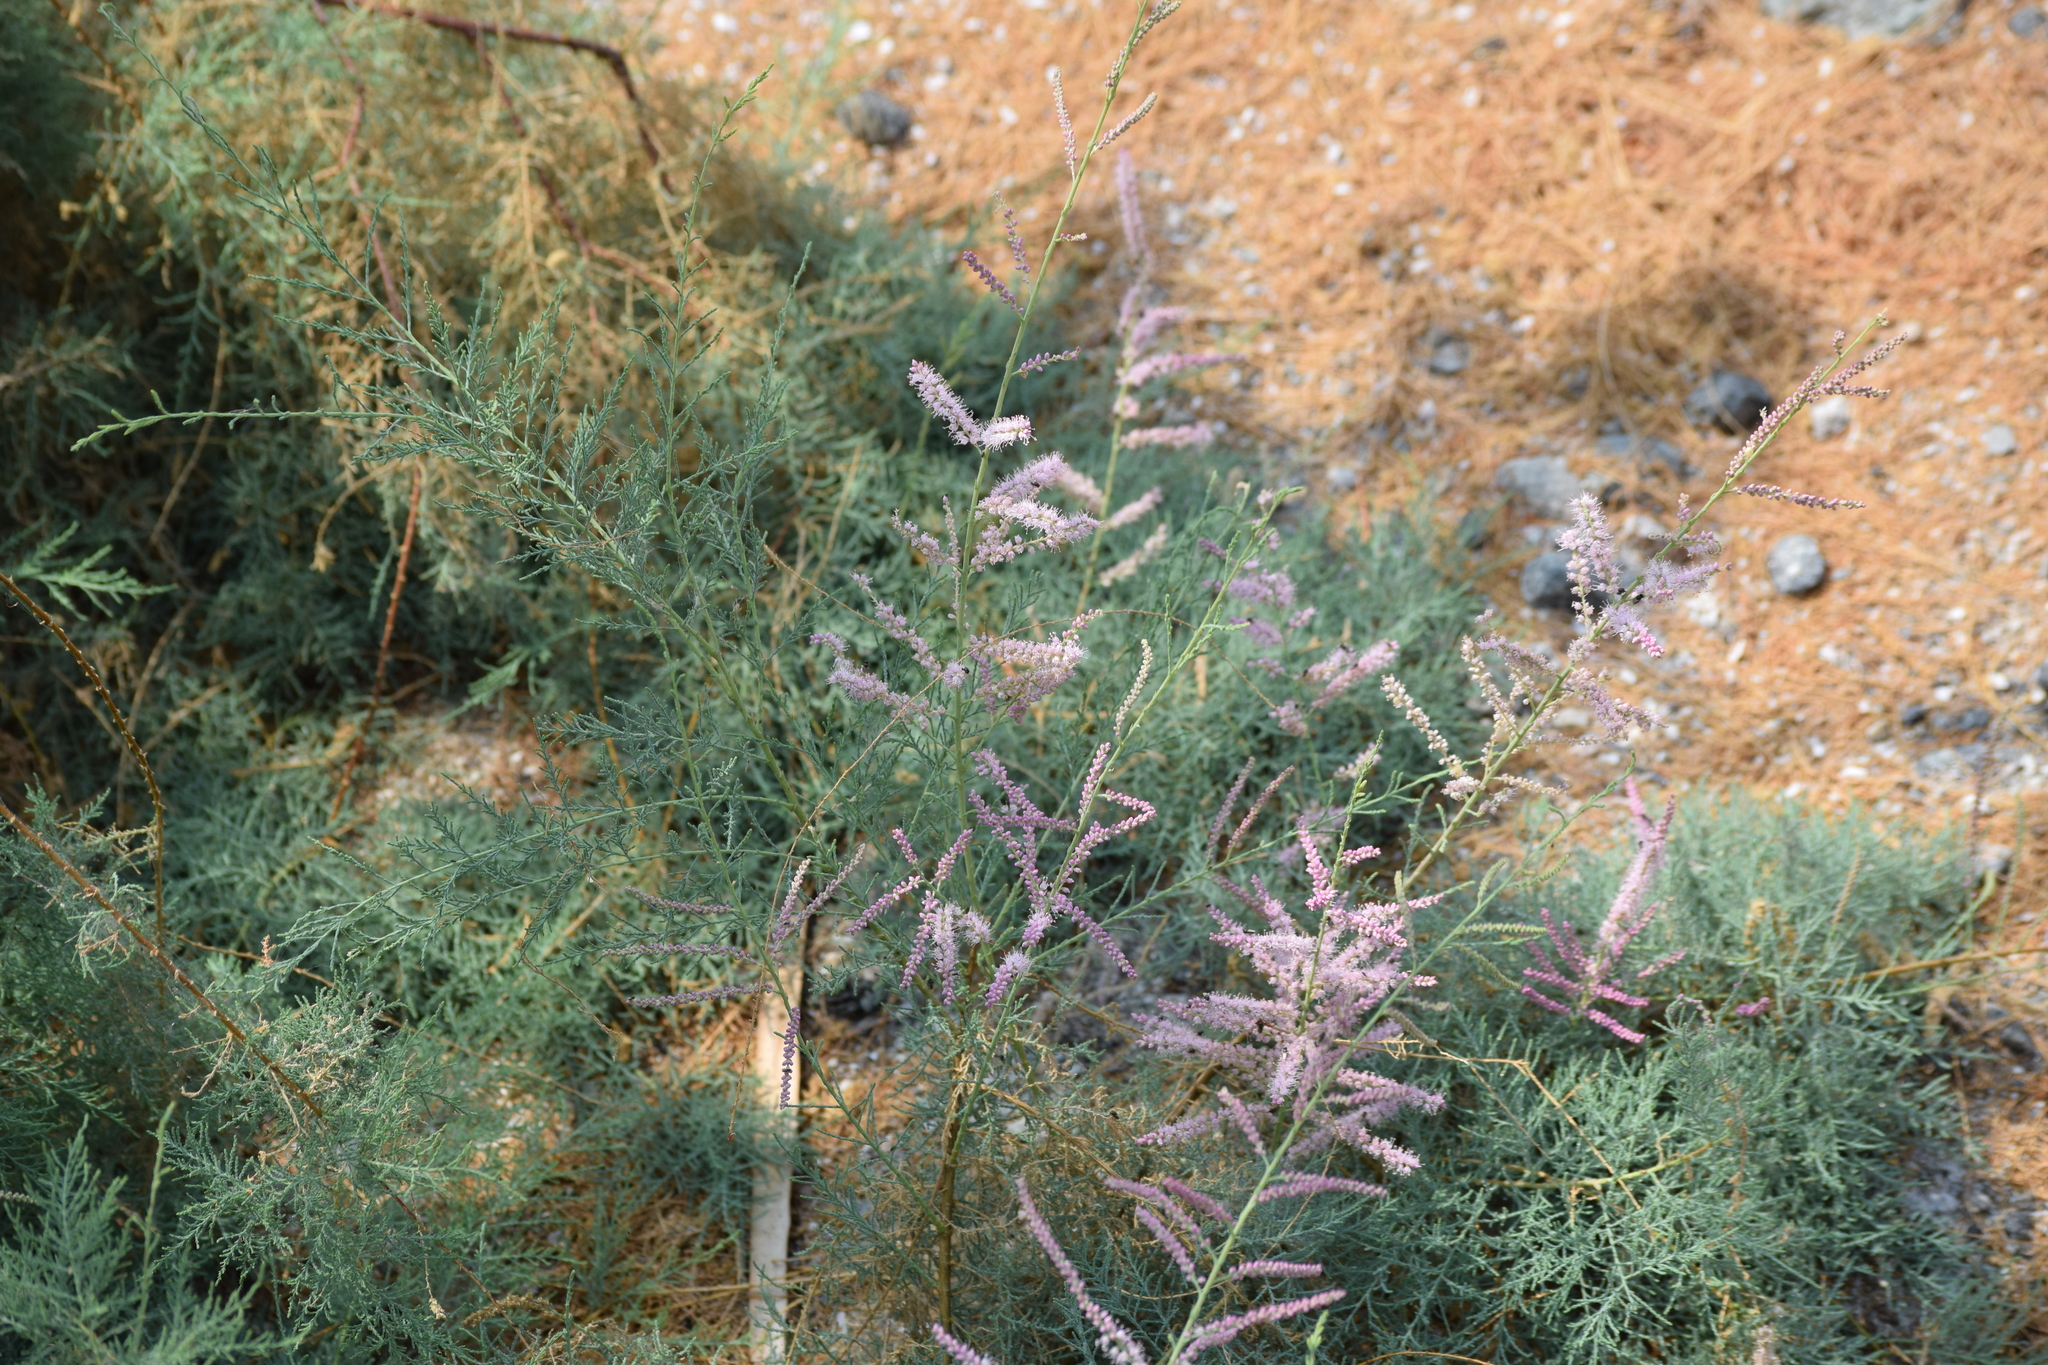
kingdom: Plantae
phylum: Tracheophyta
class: Magnoliopsida
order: Caryophyllales
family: Tamaricaceae
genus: Tamarix
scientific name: Tamarix ramosissima
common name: Pink tamarisk
